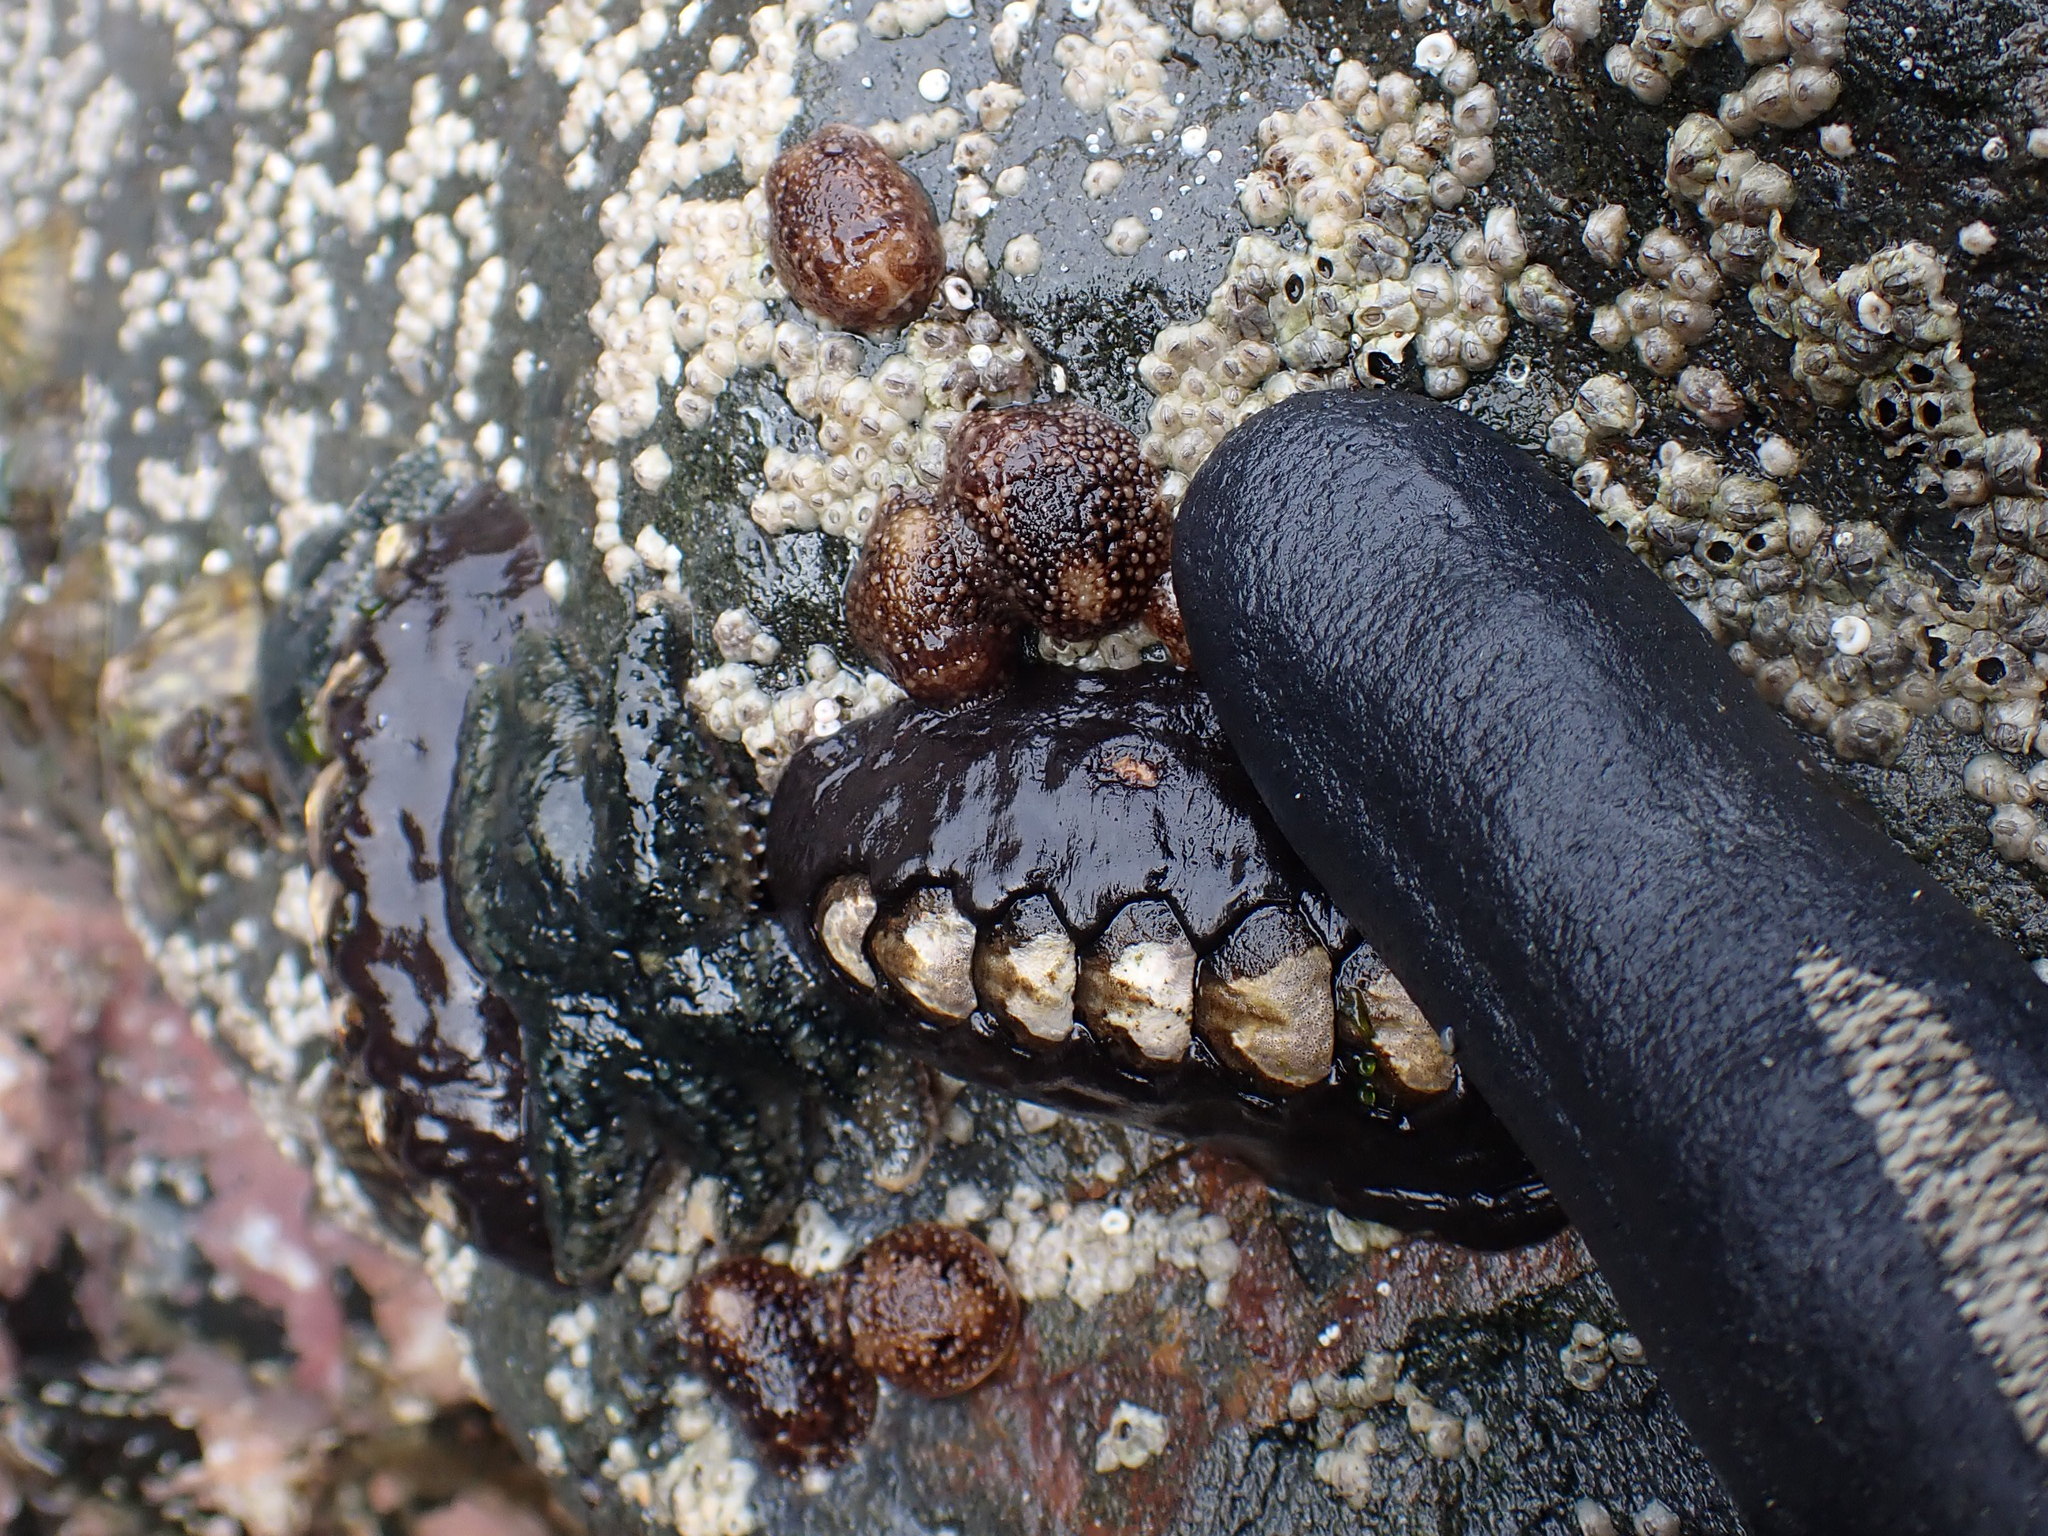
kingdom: Animalia
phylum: Mollusca
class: Gastropoda
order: Nudibranchia
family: Onchidorididae
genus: Onchidoris
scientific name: Onchidoris bilamellata
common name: Barnacle-eating onchidoris
